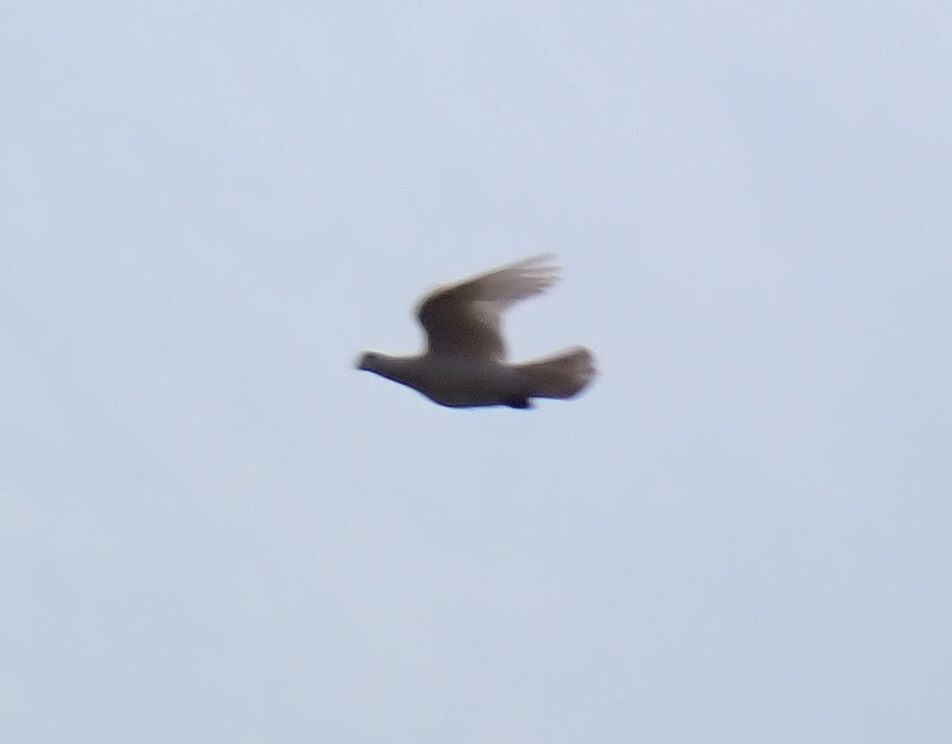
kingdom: Animalia
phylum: Chordata
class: Aves
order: Columbiformes
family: Columbidae
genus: Columba
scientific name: Columba livia
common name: Rock pigeon
